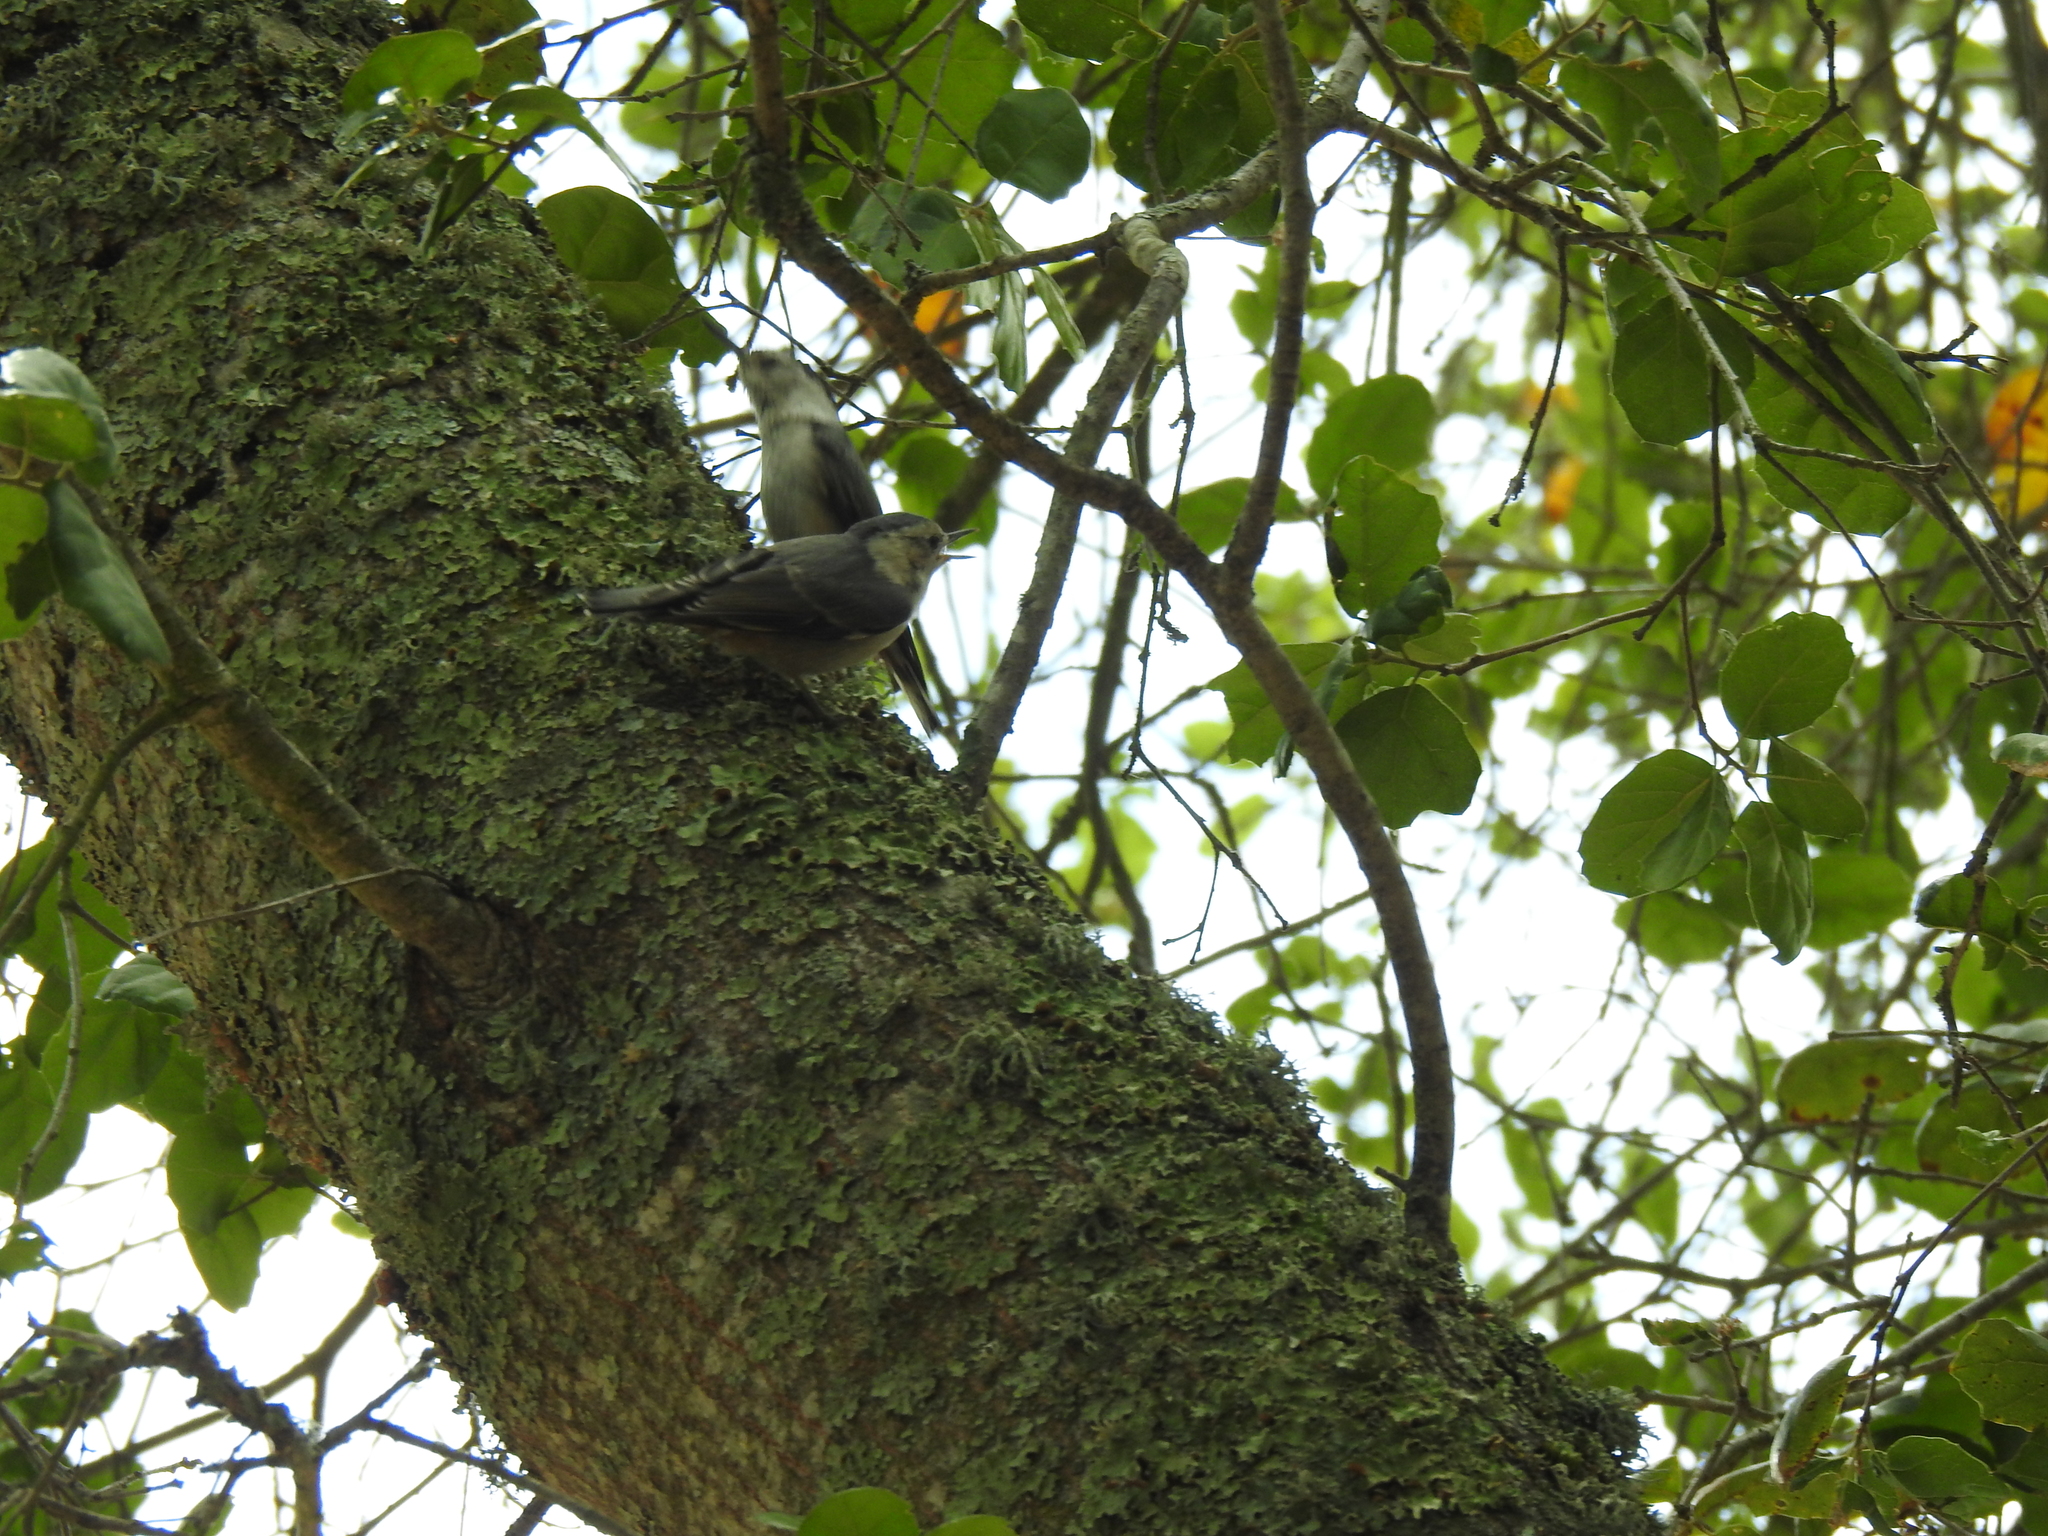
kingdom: Animalia
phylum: Chordata
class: Aves
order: Passeriformes
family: Sittidae
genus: Sitta
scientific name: Sitta carolinensis
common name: White-breasted nuthatch
